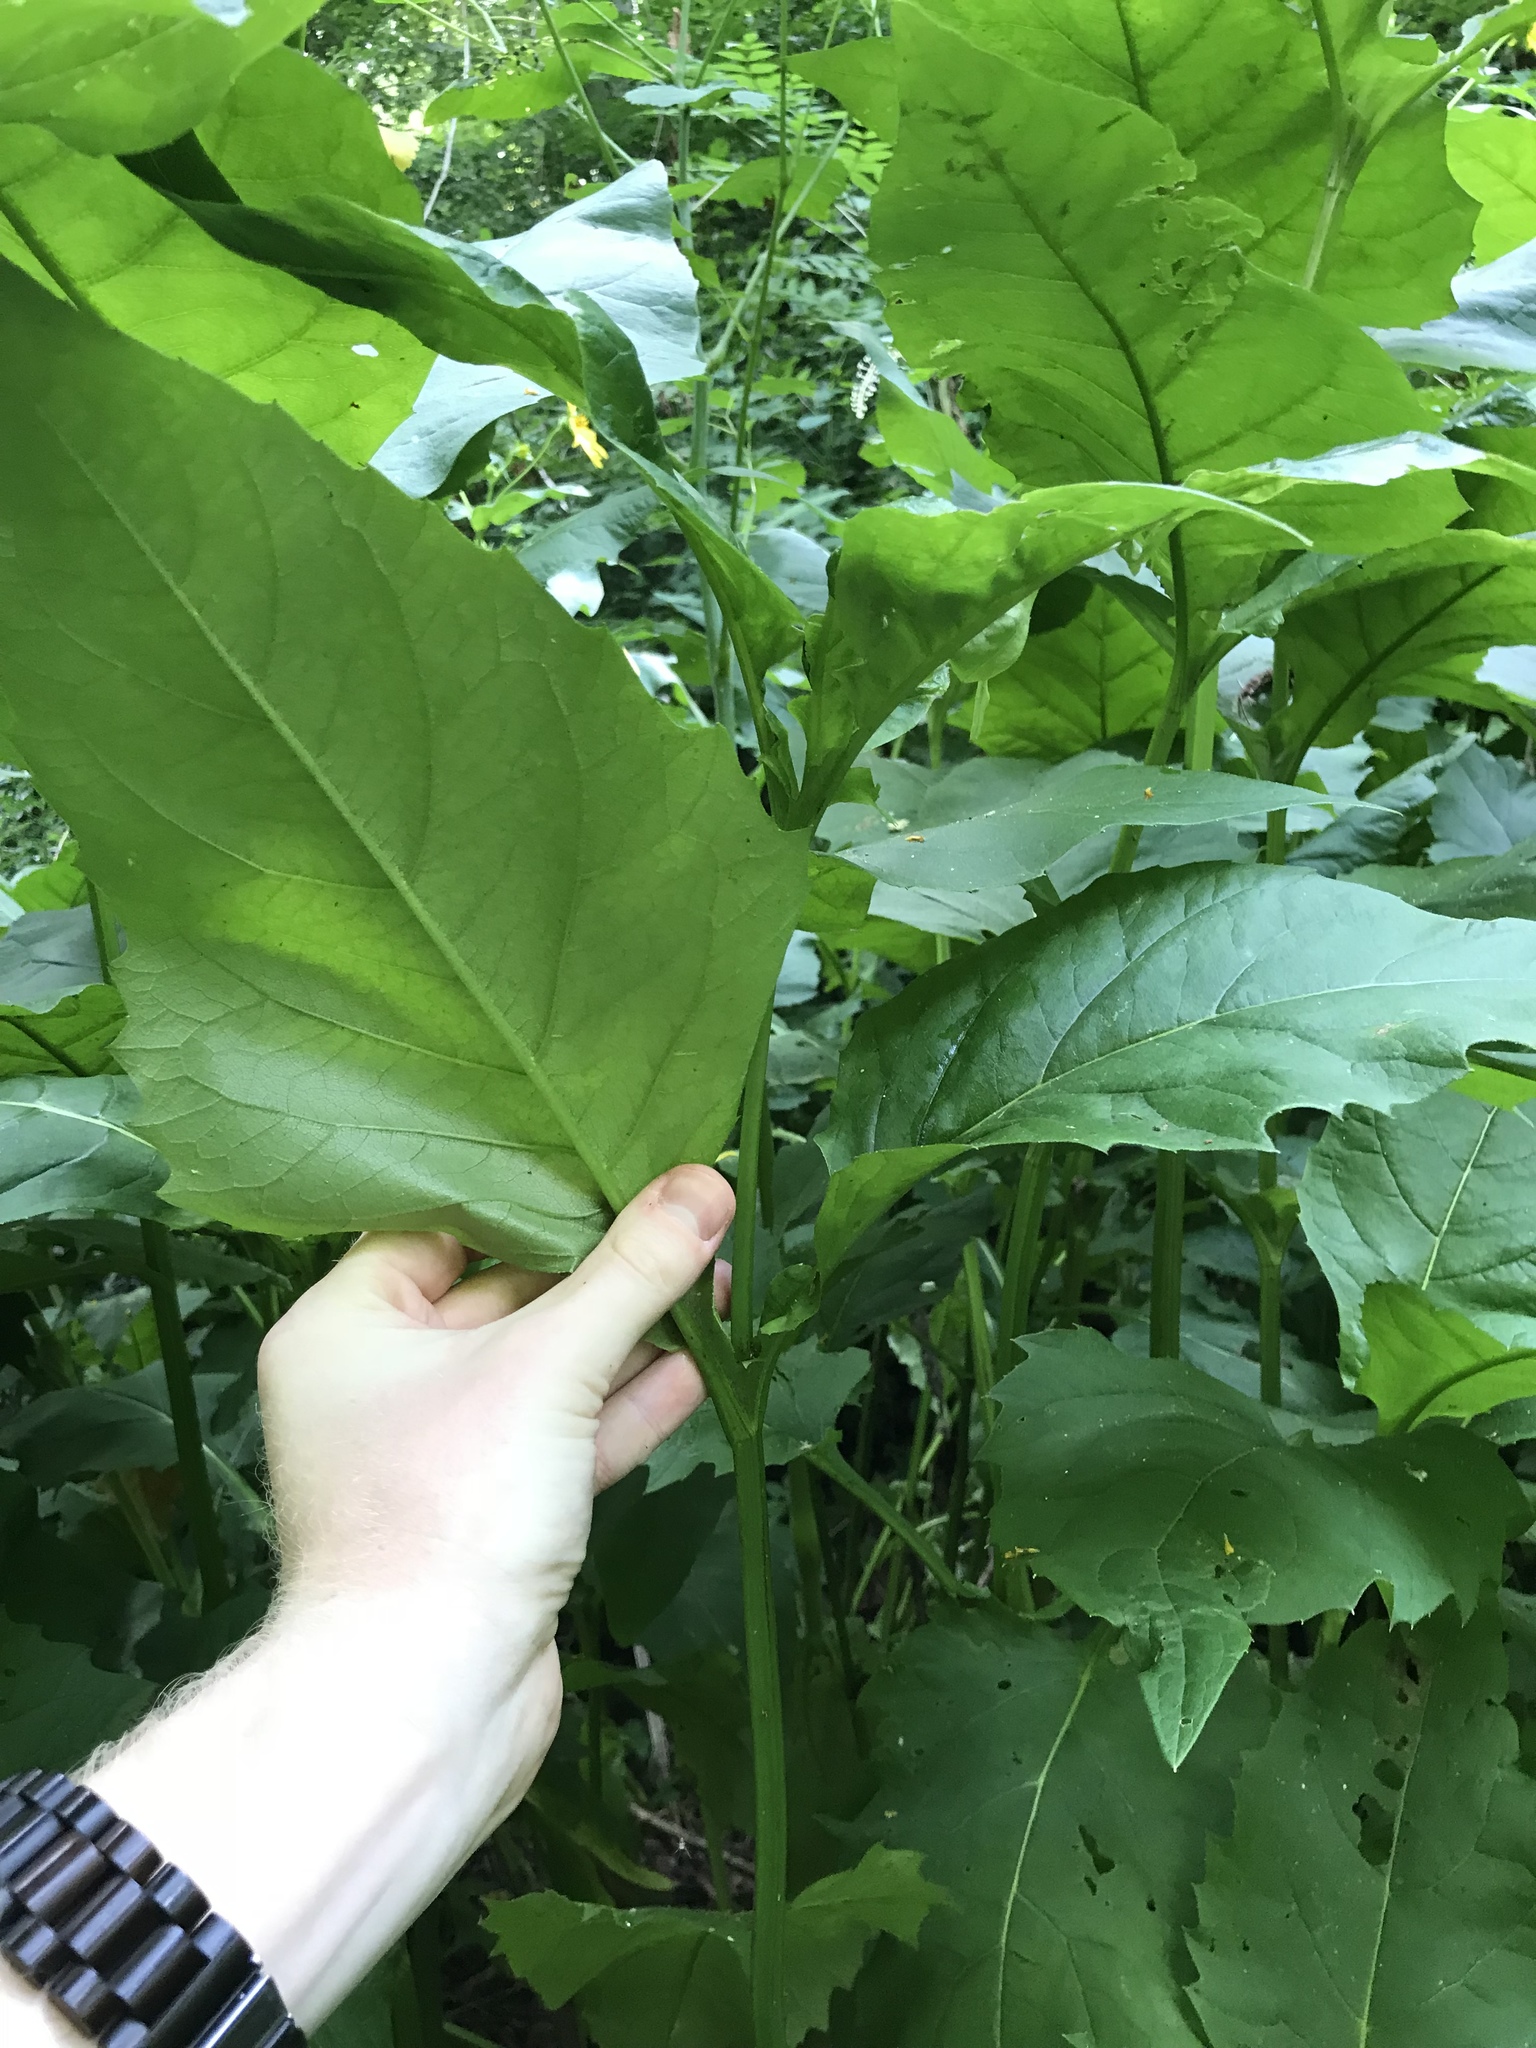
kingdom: Plantae
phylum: Tracheophyta
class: Magnoliopsida
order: Asterales
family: Asteraceae
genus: Silphium
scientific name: Silphium perfoliatum
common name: Cup-plant
